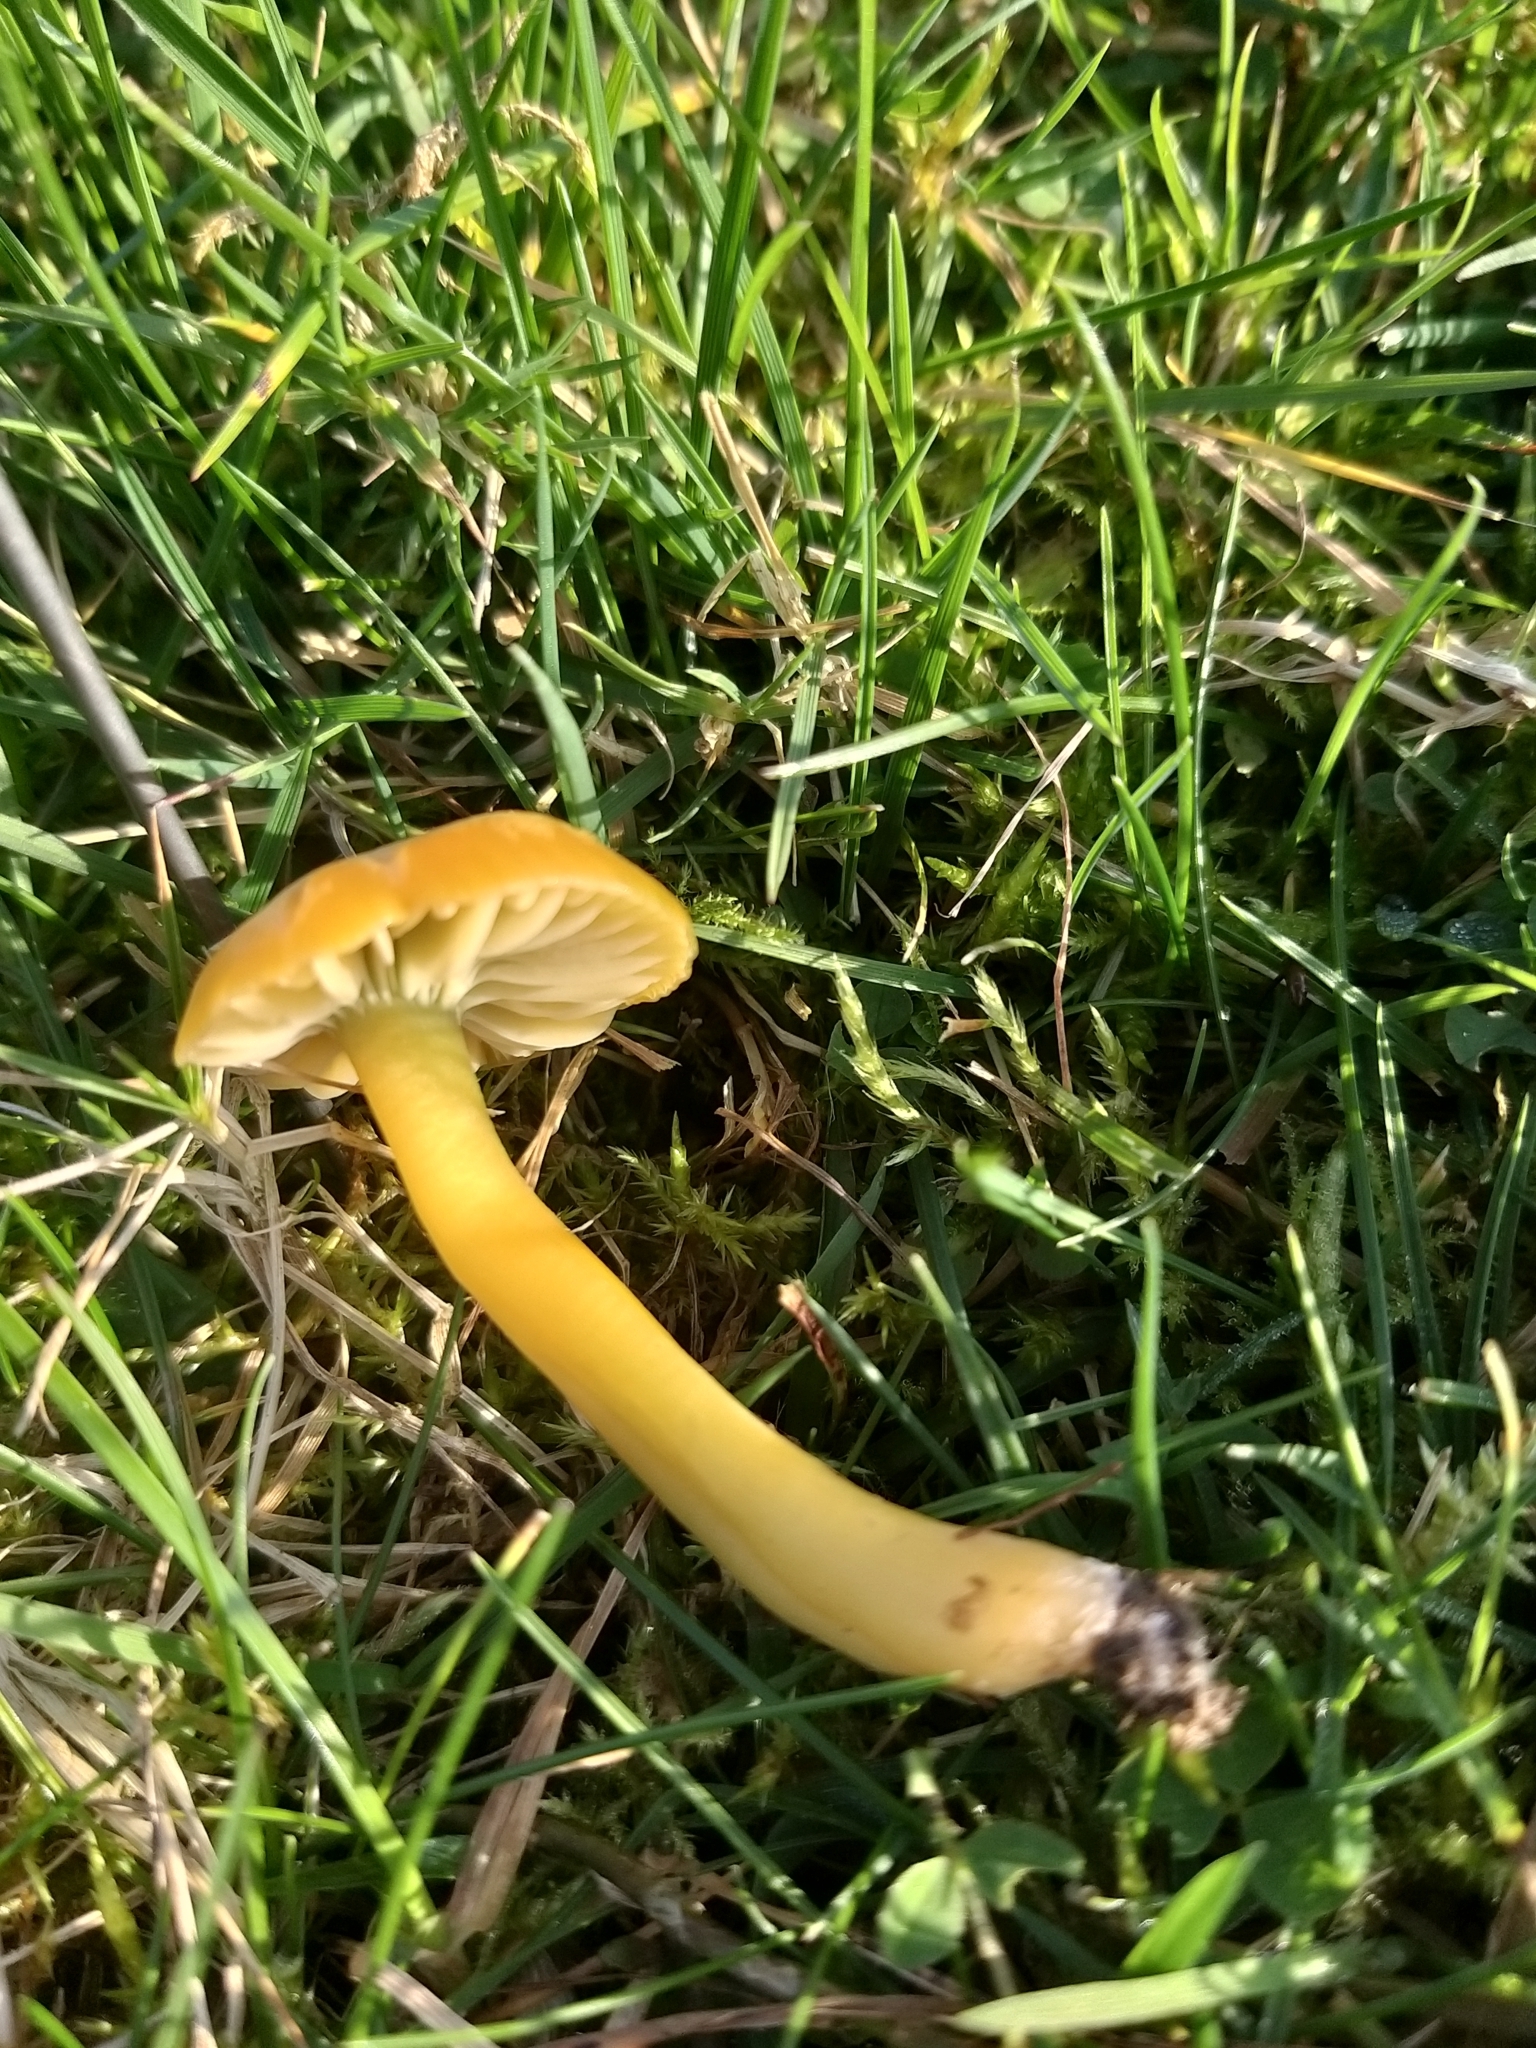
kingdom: Fungi
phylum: Basidiomycota
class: Agaricomycetes
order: Agaricales
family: Hygrophoraceae
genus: Gliophorus
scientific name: Gliophorus psittacinus
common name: Parrot wax-cap
